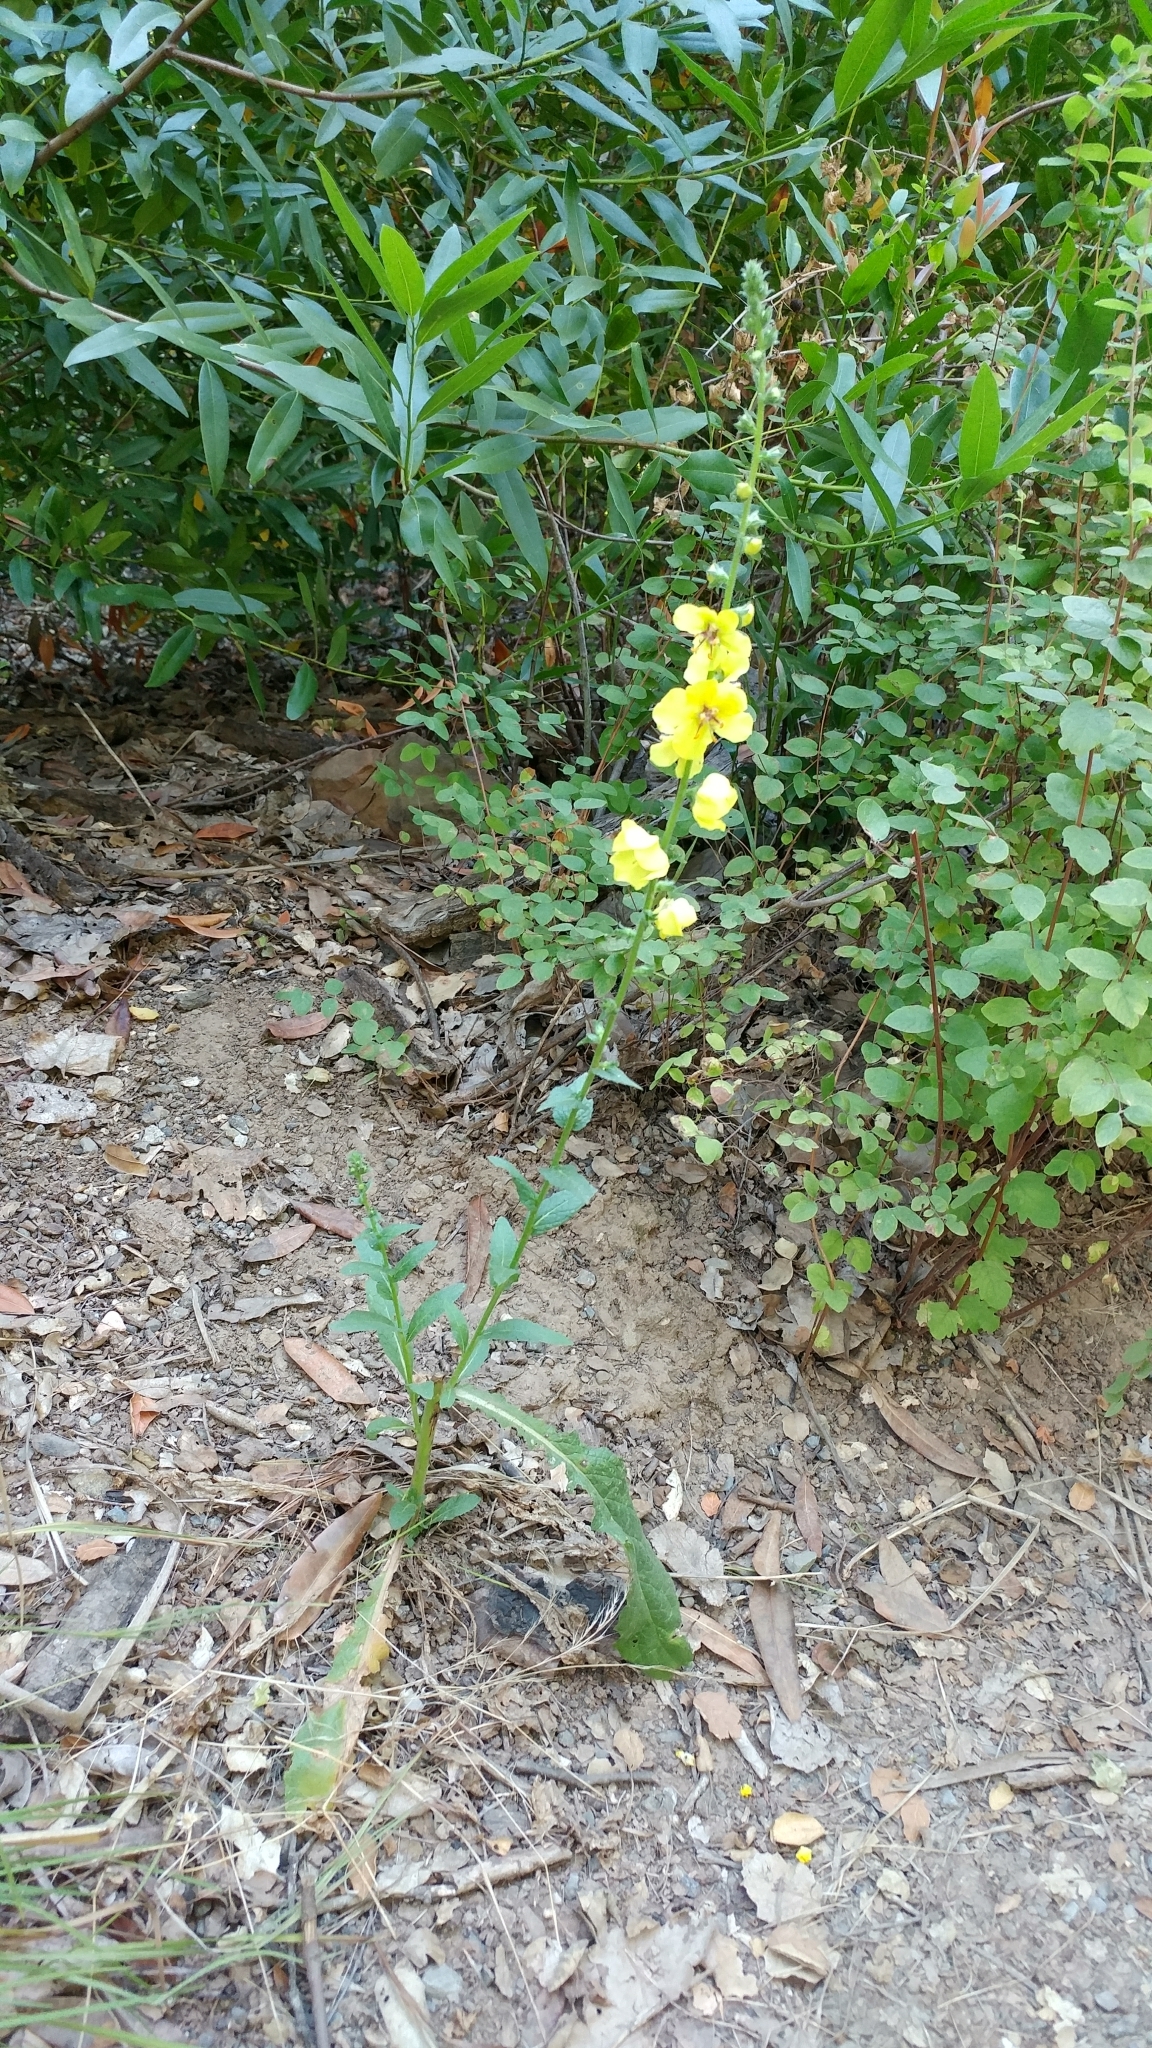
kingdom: Plantae
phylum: Tracheophyta
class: Magnoliopsida
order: Lamiales
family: Scrophulariaceae
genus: Verbascum
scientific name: Verbascum virgatum
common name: Twiggy mullein
